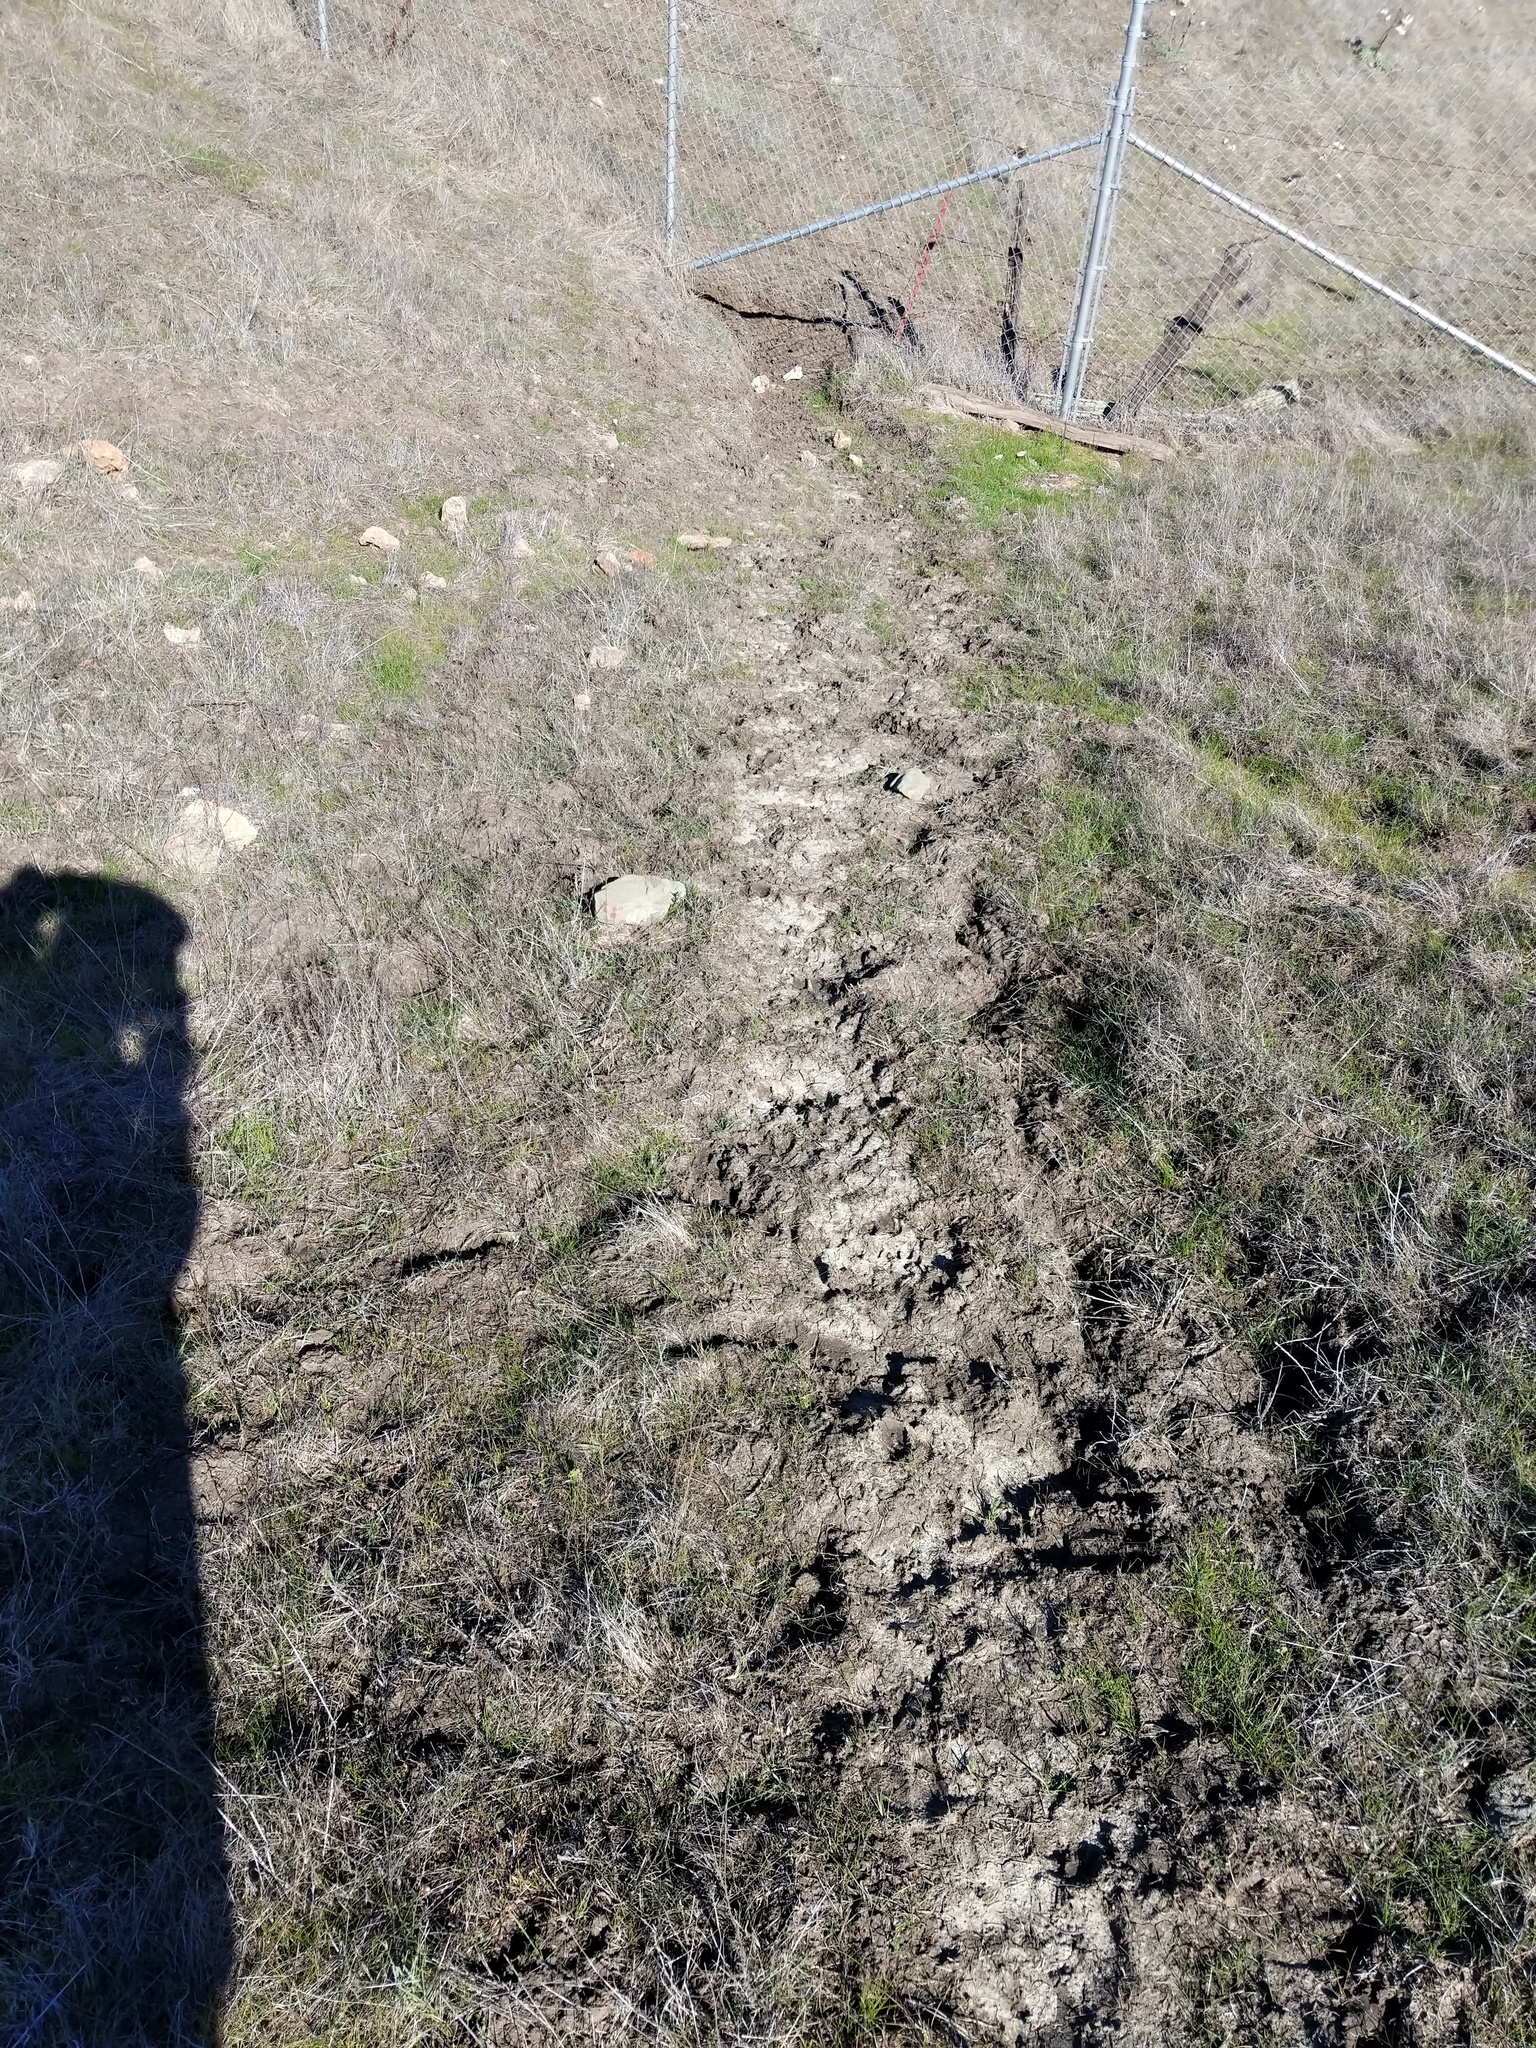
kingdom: Animalia
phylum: Chordata
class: Mammalia
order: Artiodactyla
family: Suidae
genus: Sus
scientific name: Sus scrofa
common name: Wild boar
